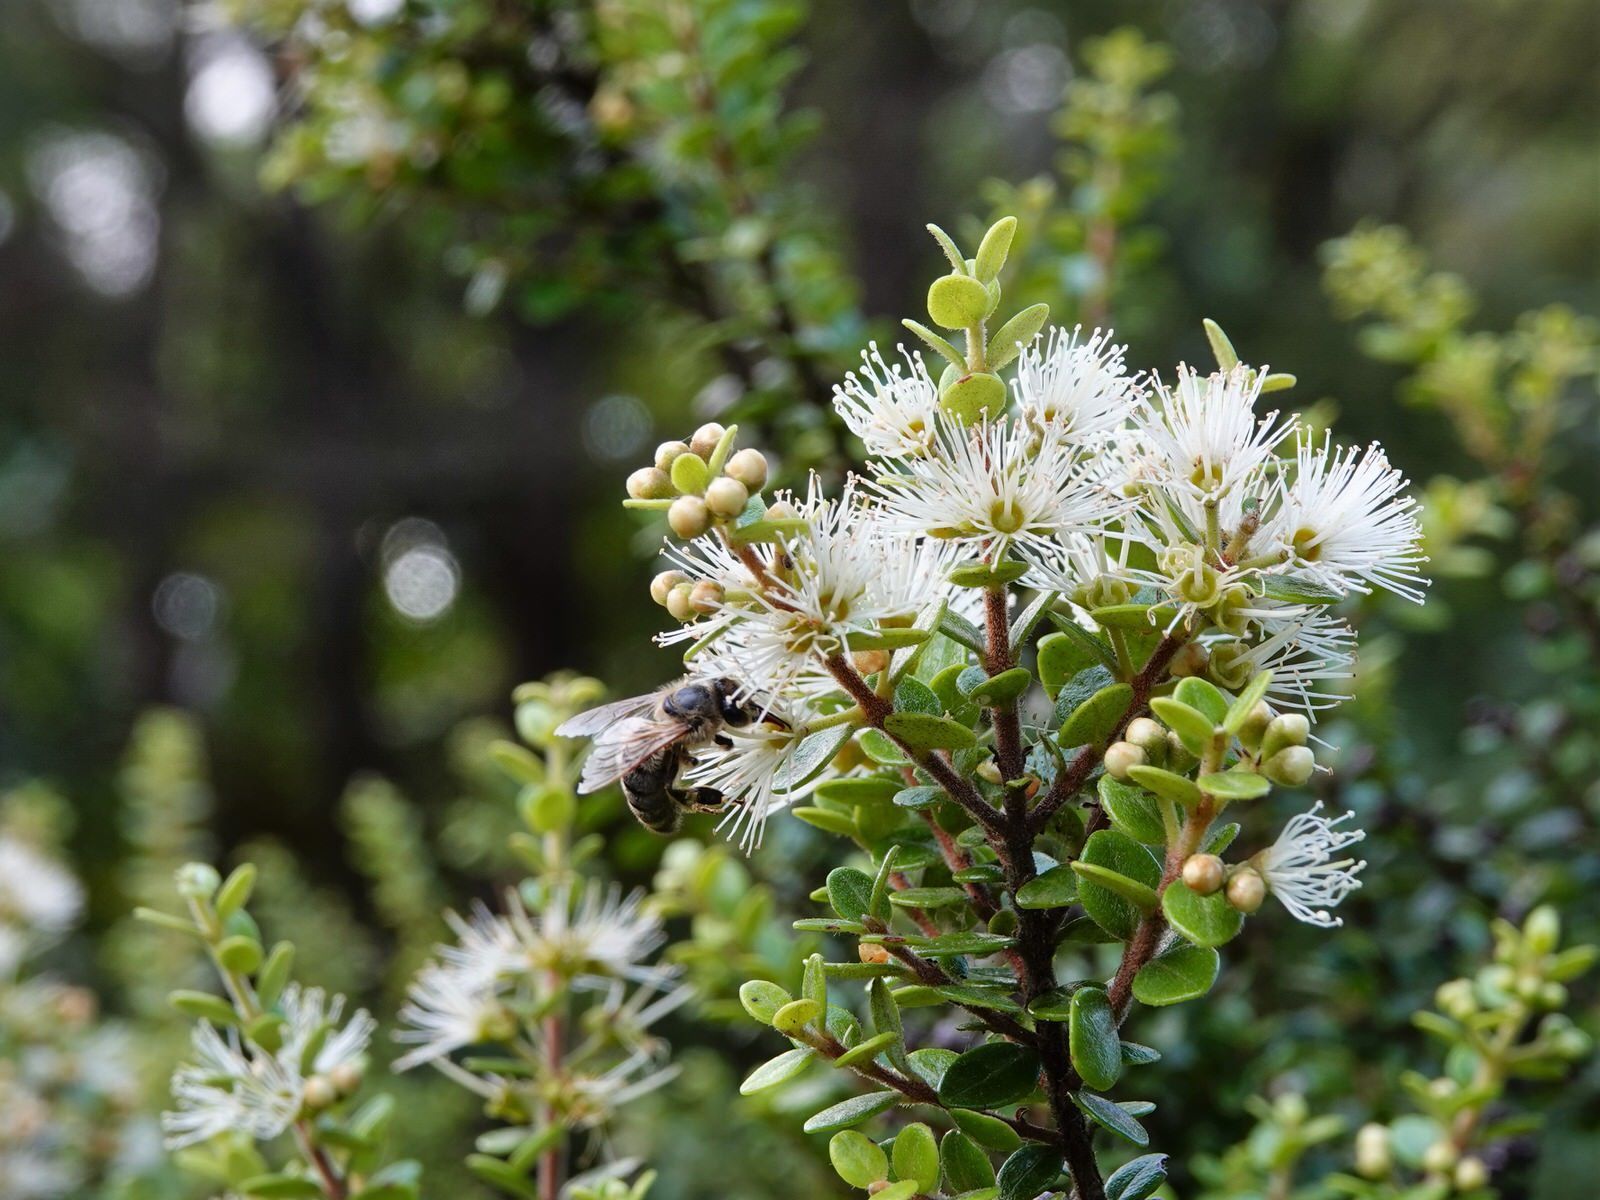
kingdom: Plantae
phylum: Tracheophyta
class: Magnoliopsida
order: Myrtales
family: Myrtaceae
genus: Metrosideros
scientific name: Metrosideros perforata
